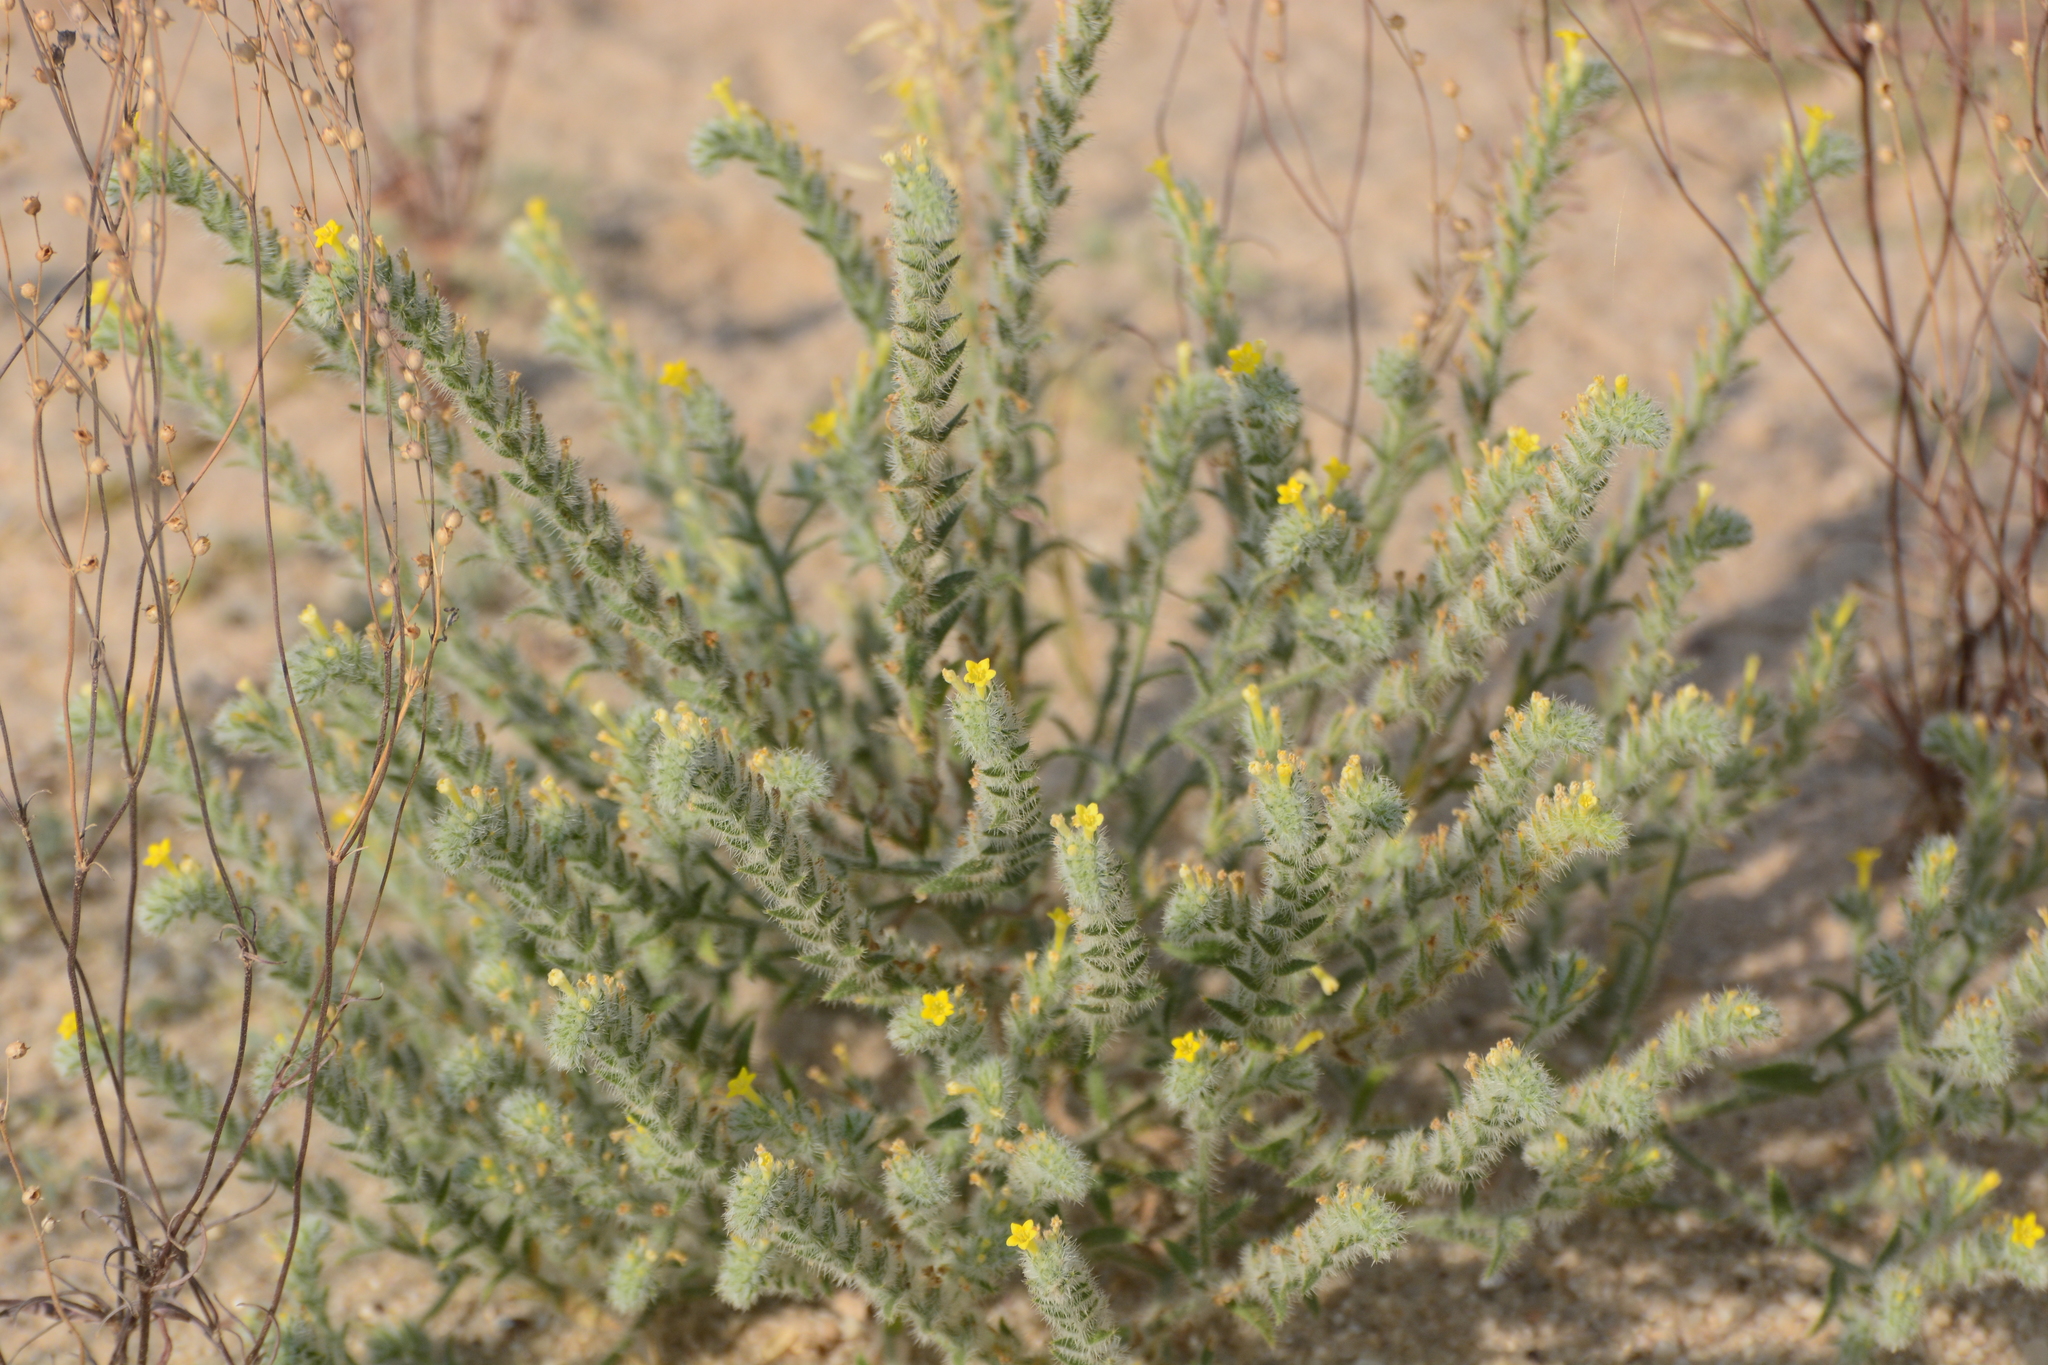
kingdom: Plantae
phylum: Tracheophyta
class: Magnoliopsida
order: Boraginales
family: Boraginaceae
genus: Arnebia
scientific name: Arnebia hispidissima
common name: Arabian-primrose
